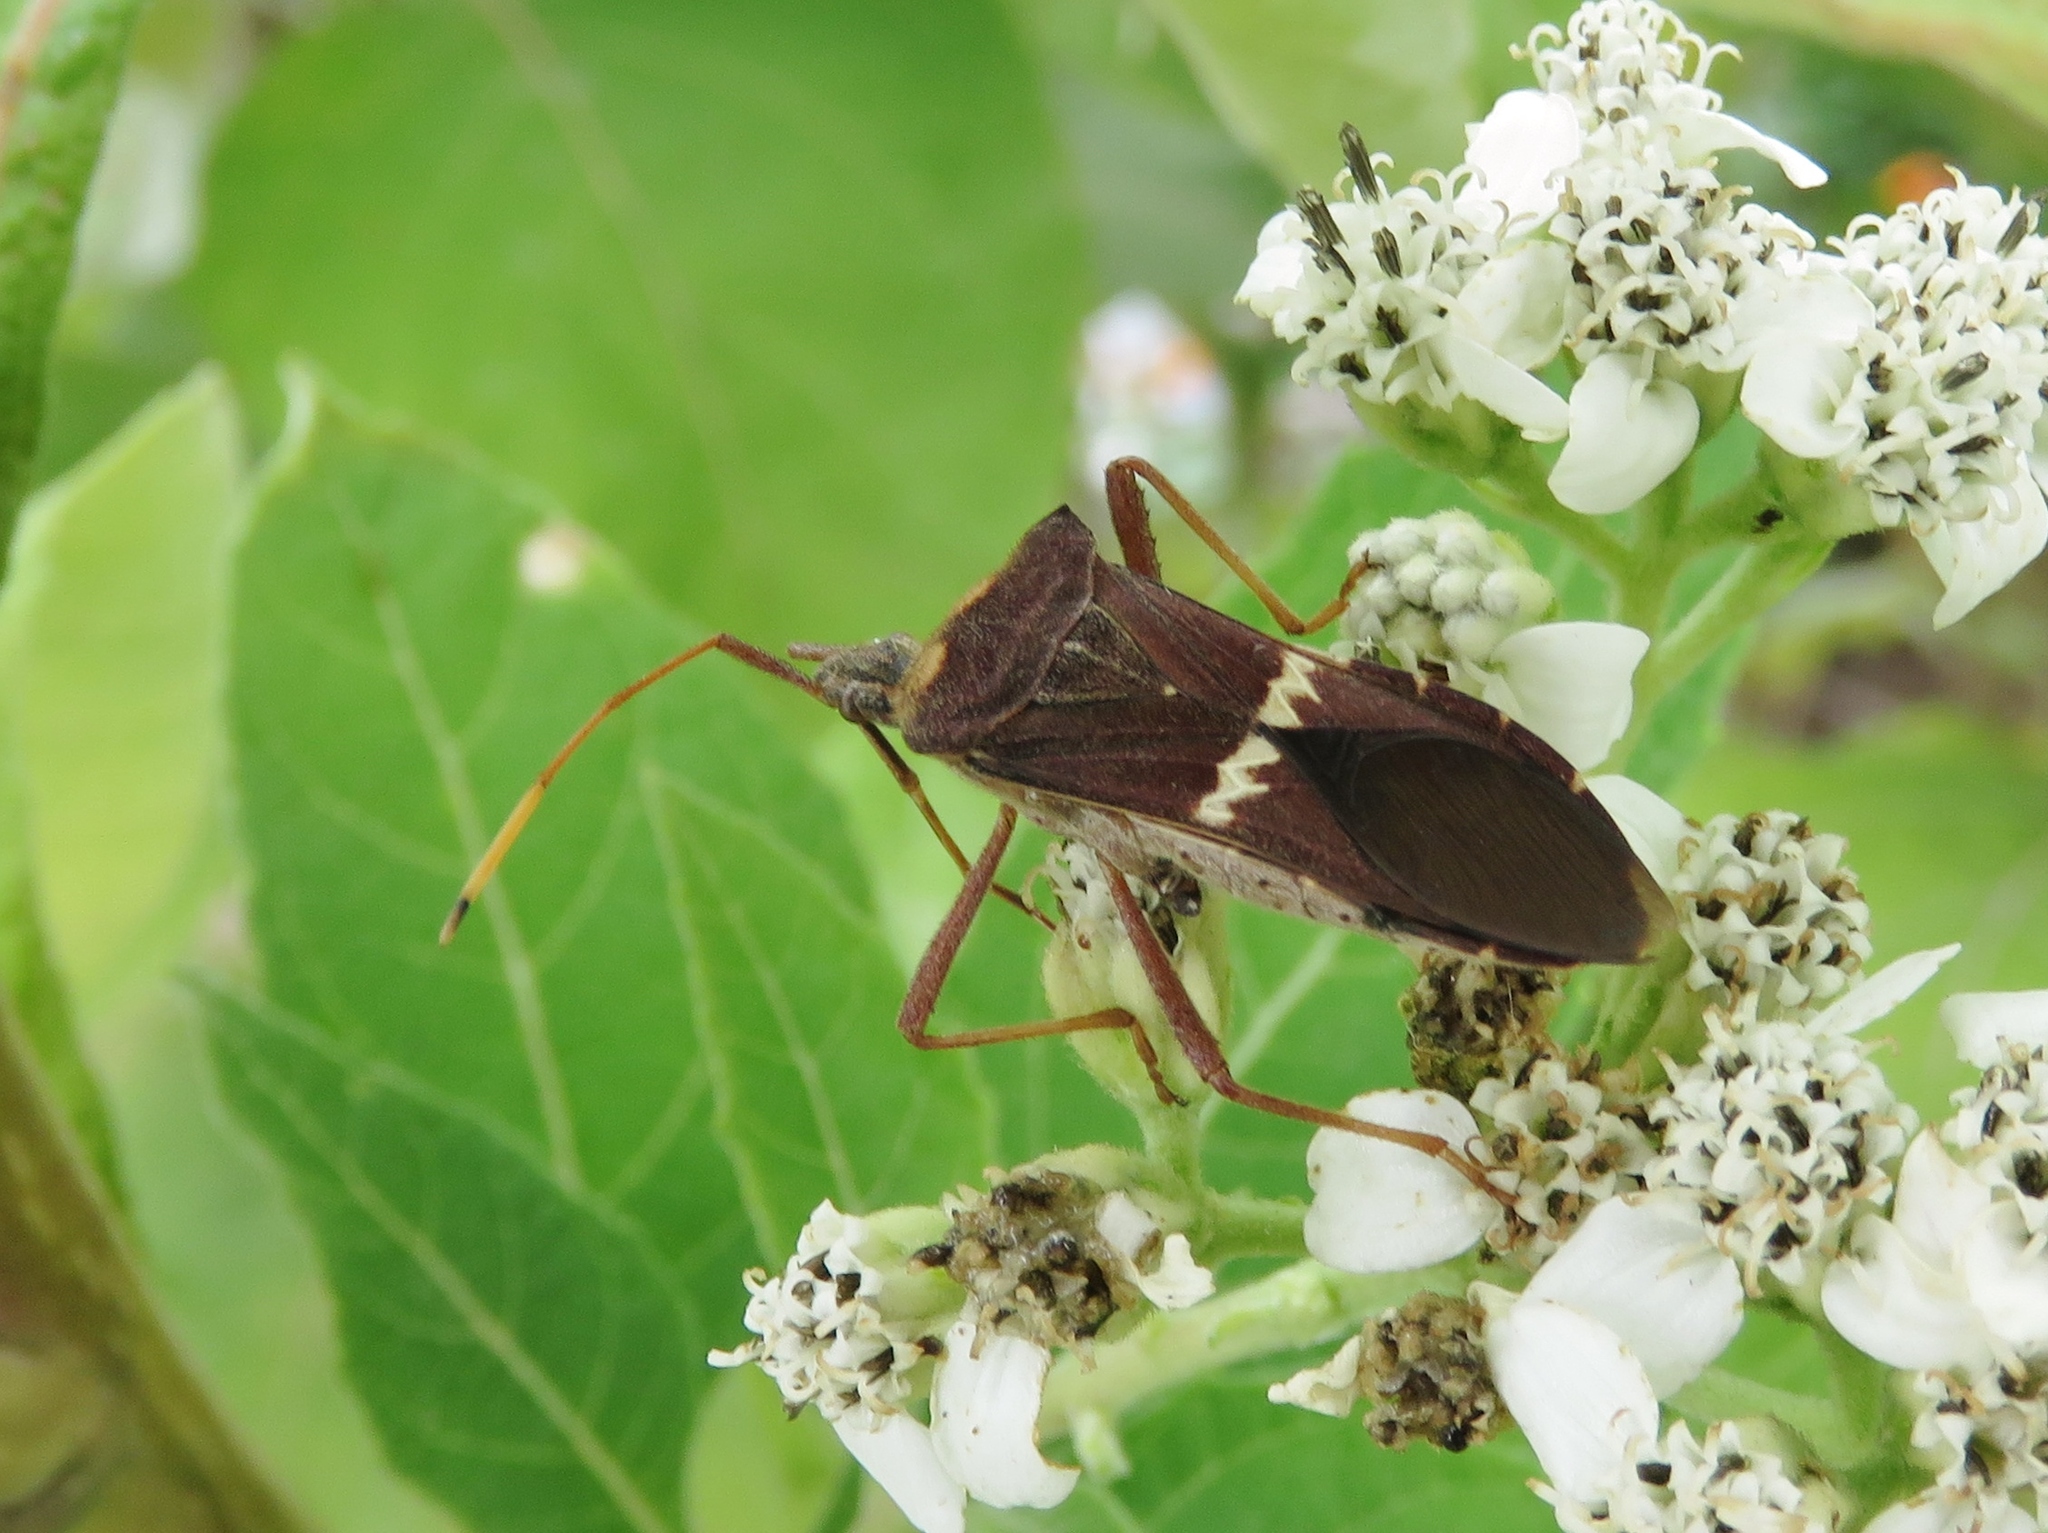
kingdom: Animalia
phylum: Arthropoda
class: Insecta
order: Hemiptera
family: Coreidae
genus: Leptoglossus
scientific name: Leptoglossus zonatus
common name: Large-legged bug
